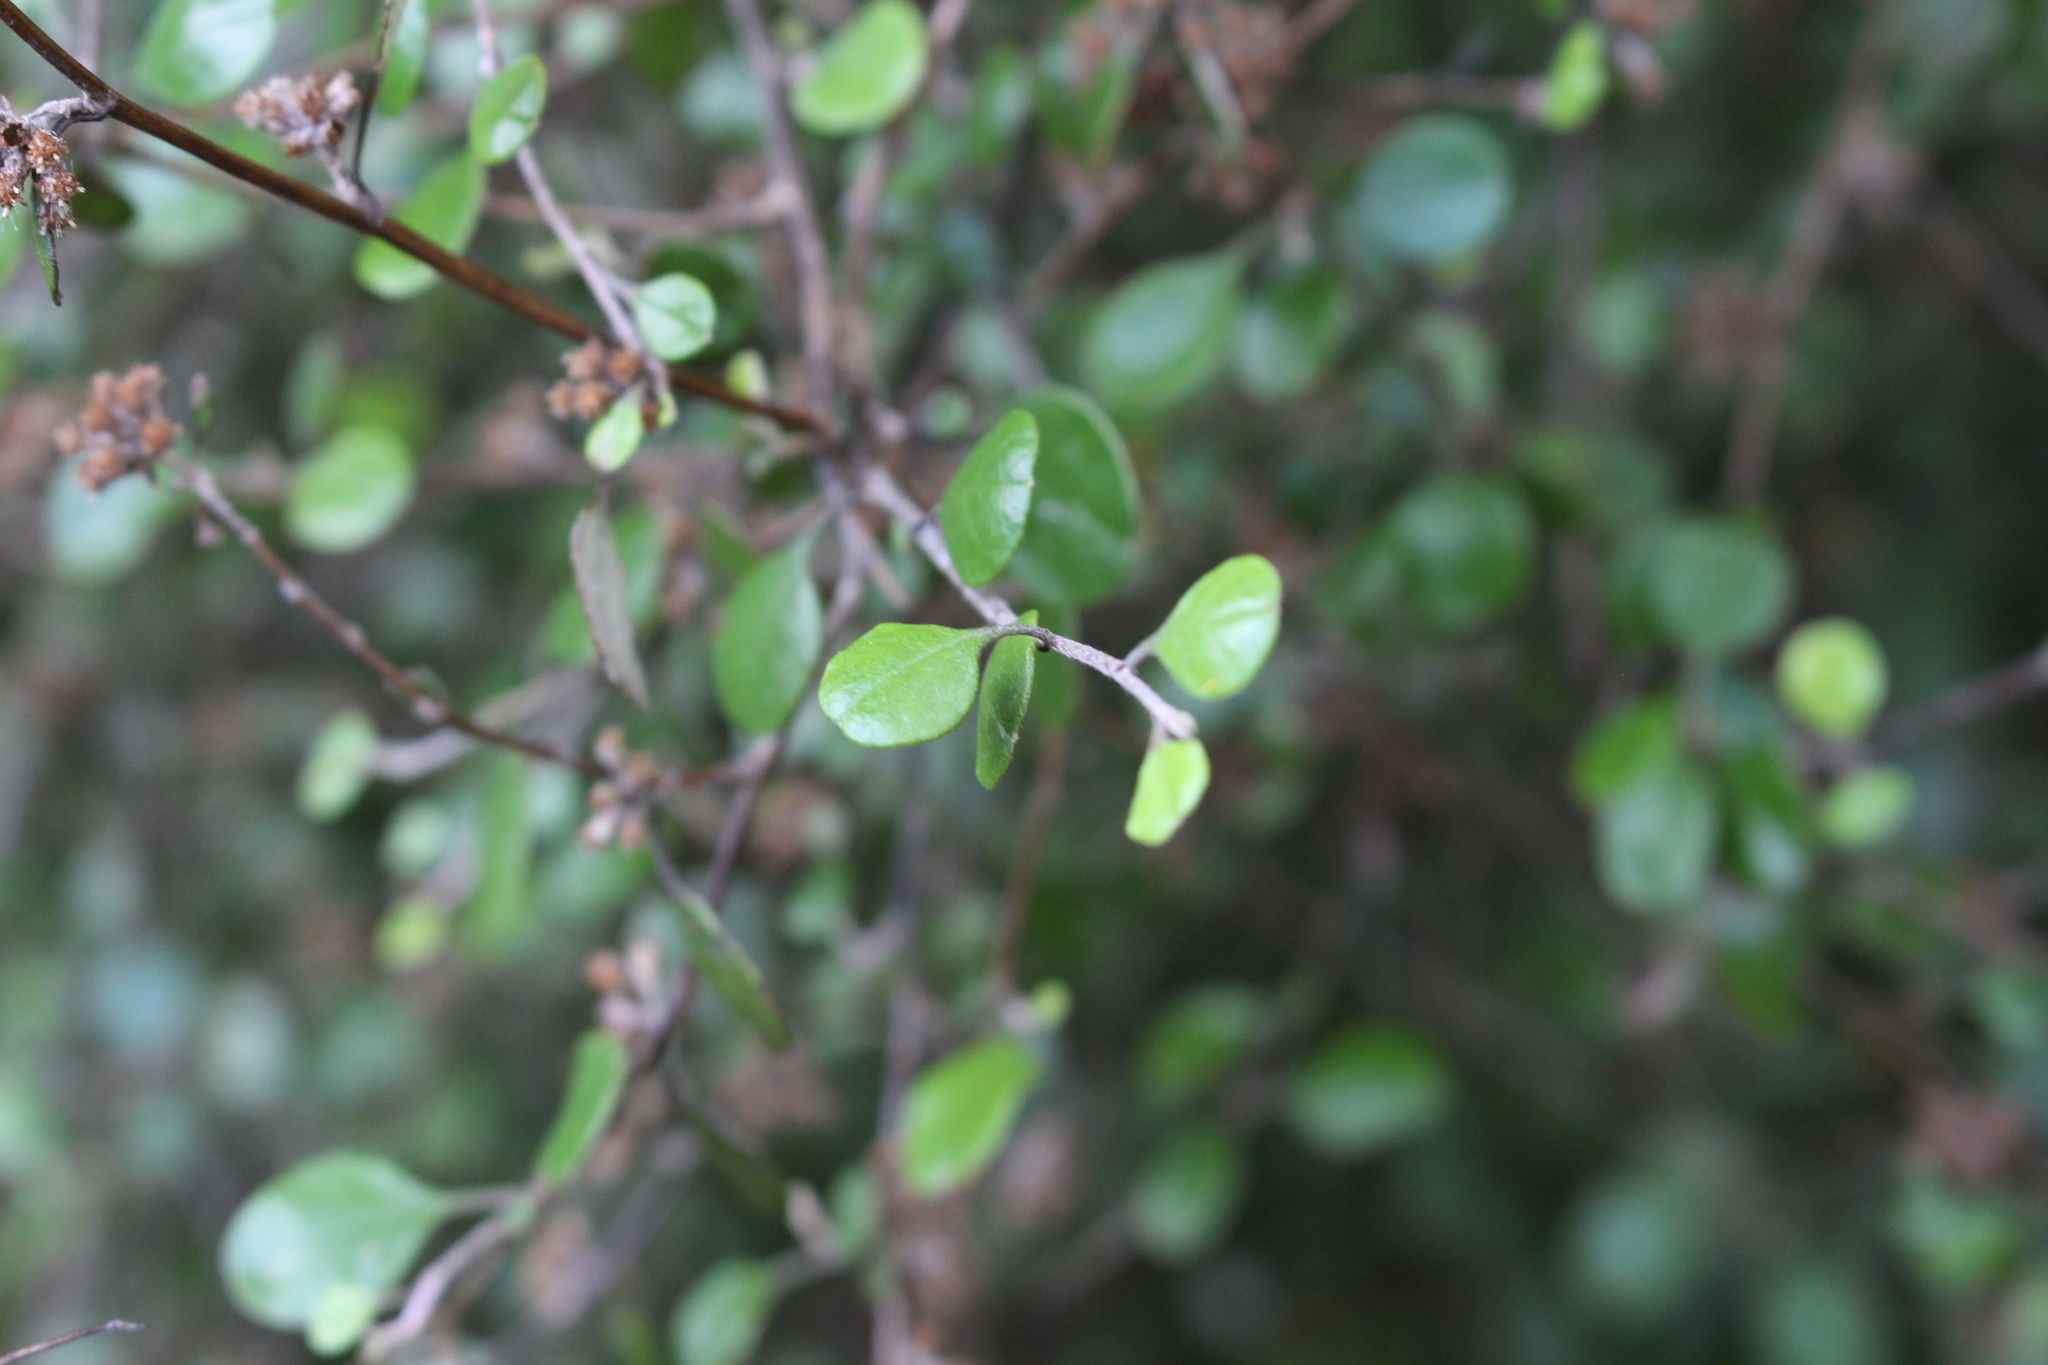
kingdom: Plantae
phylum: Tracheophyta
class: Magnoliopsida
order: Asterales
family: Asteraceae
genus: Ozothamnus
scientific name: Ozothamnus glomeratus
